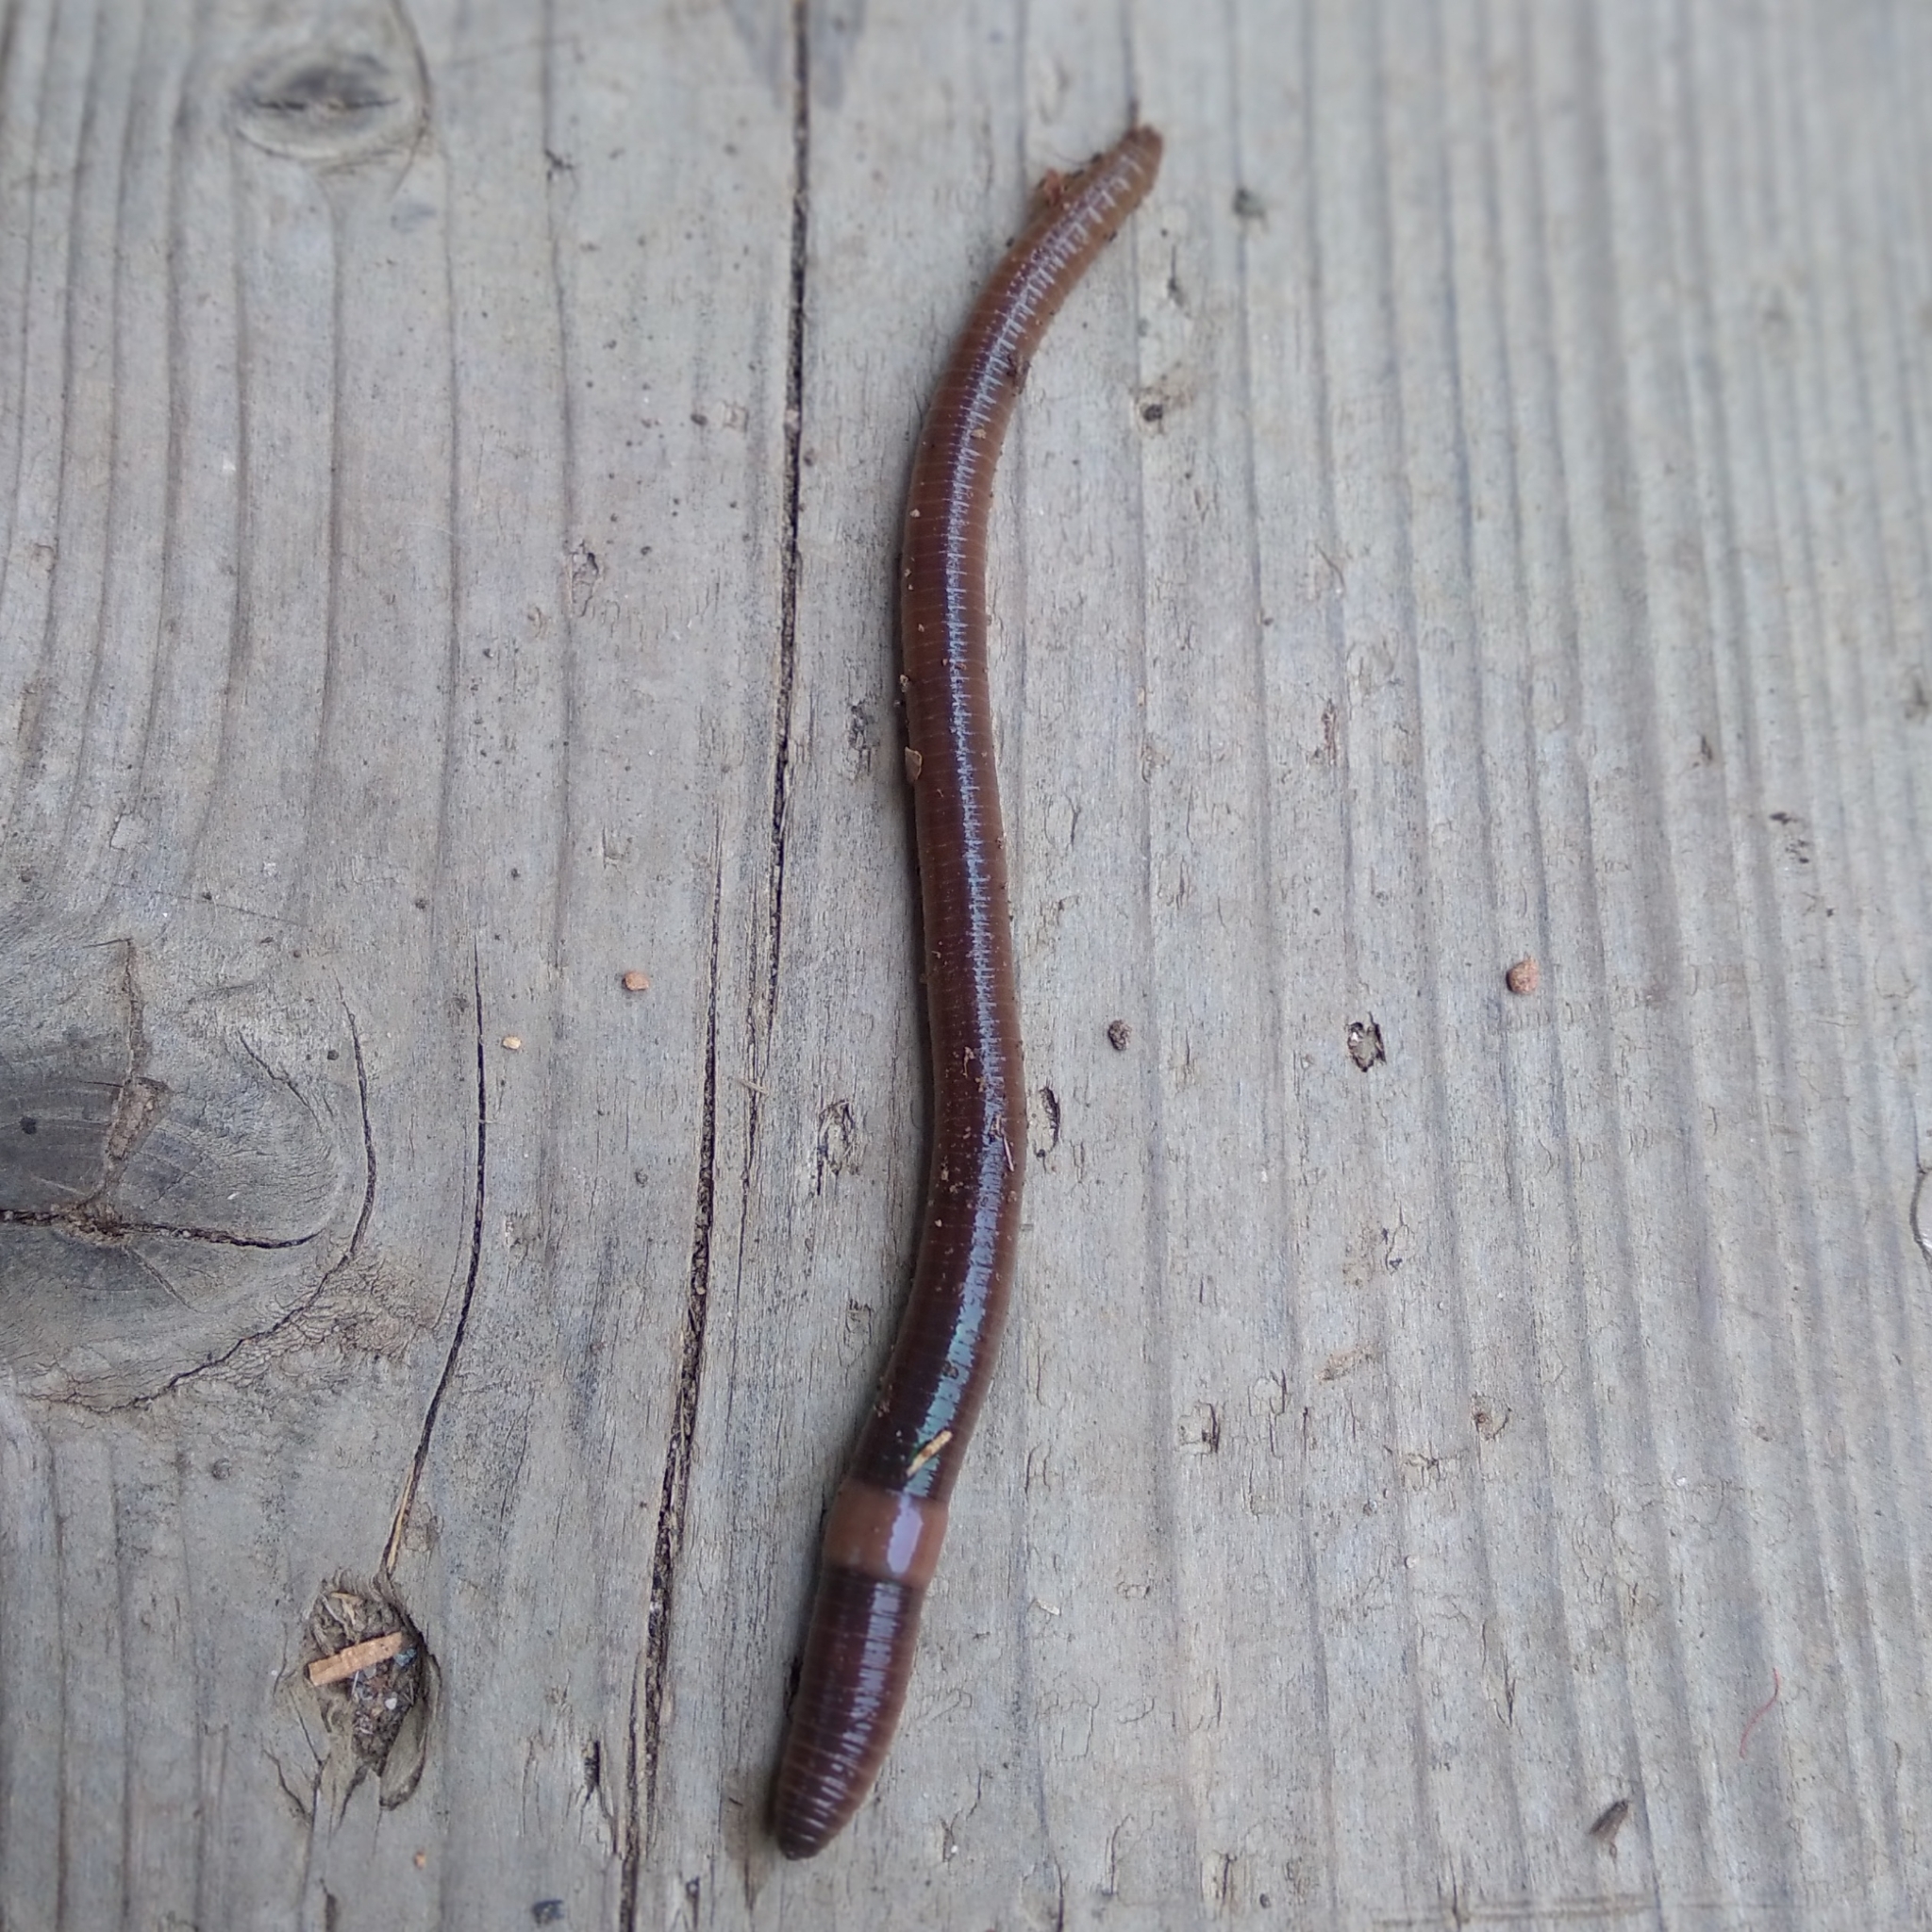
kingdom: Animalia
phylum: Annelida
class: Clitellata
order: Crassiclitellata
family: Lumbricidae
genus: Eisenia
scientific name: Eisenia fetida
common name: Red wiggler
